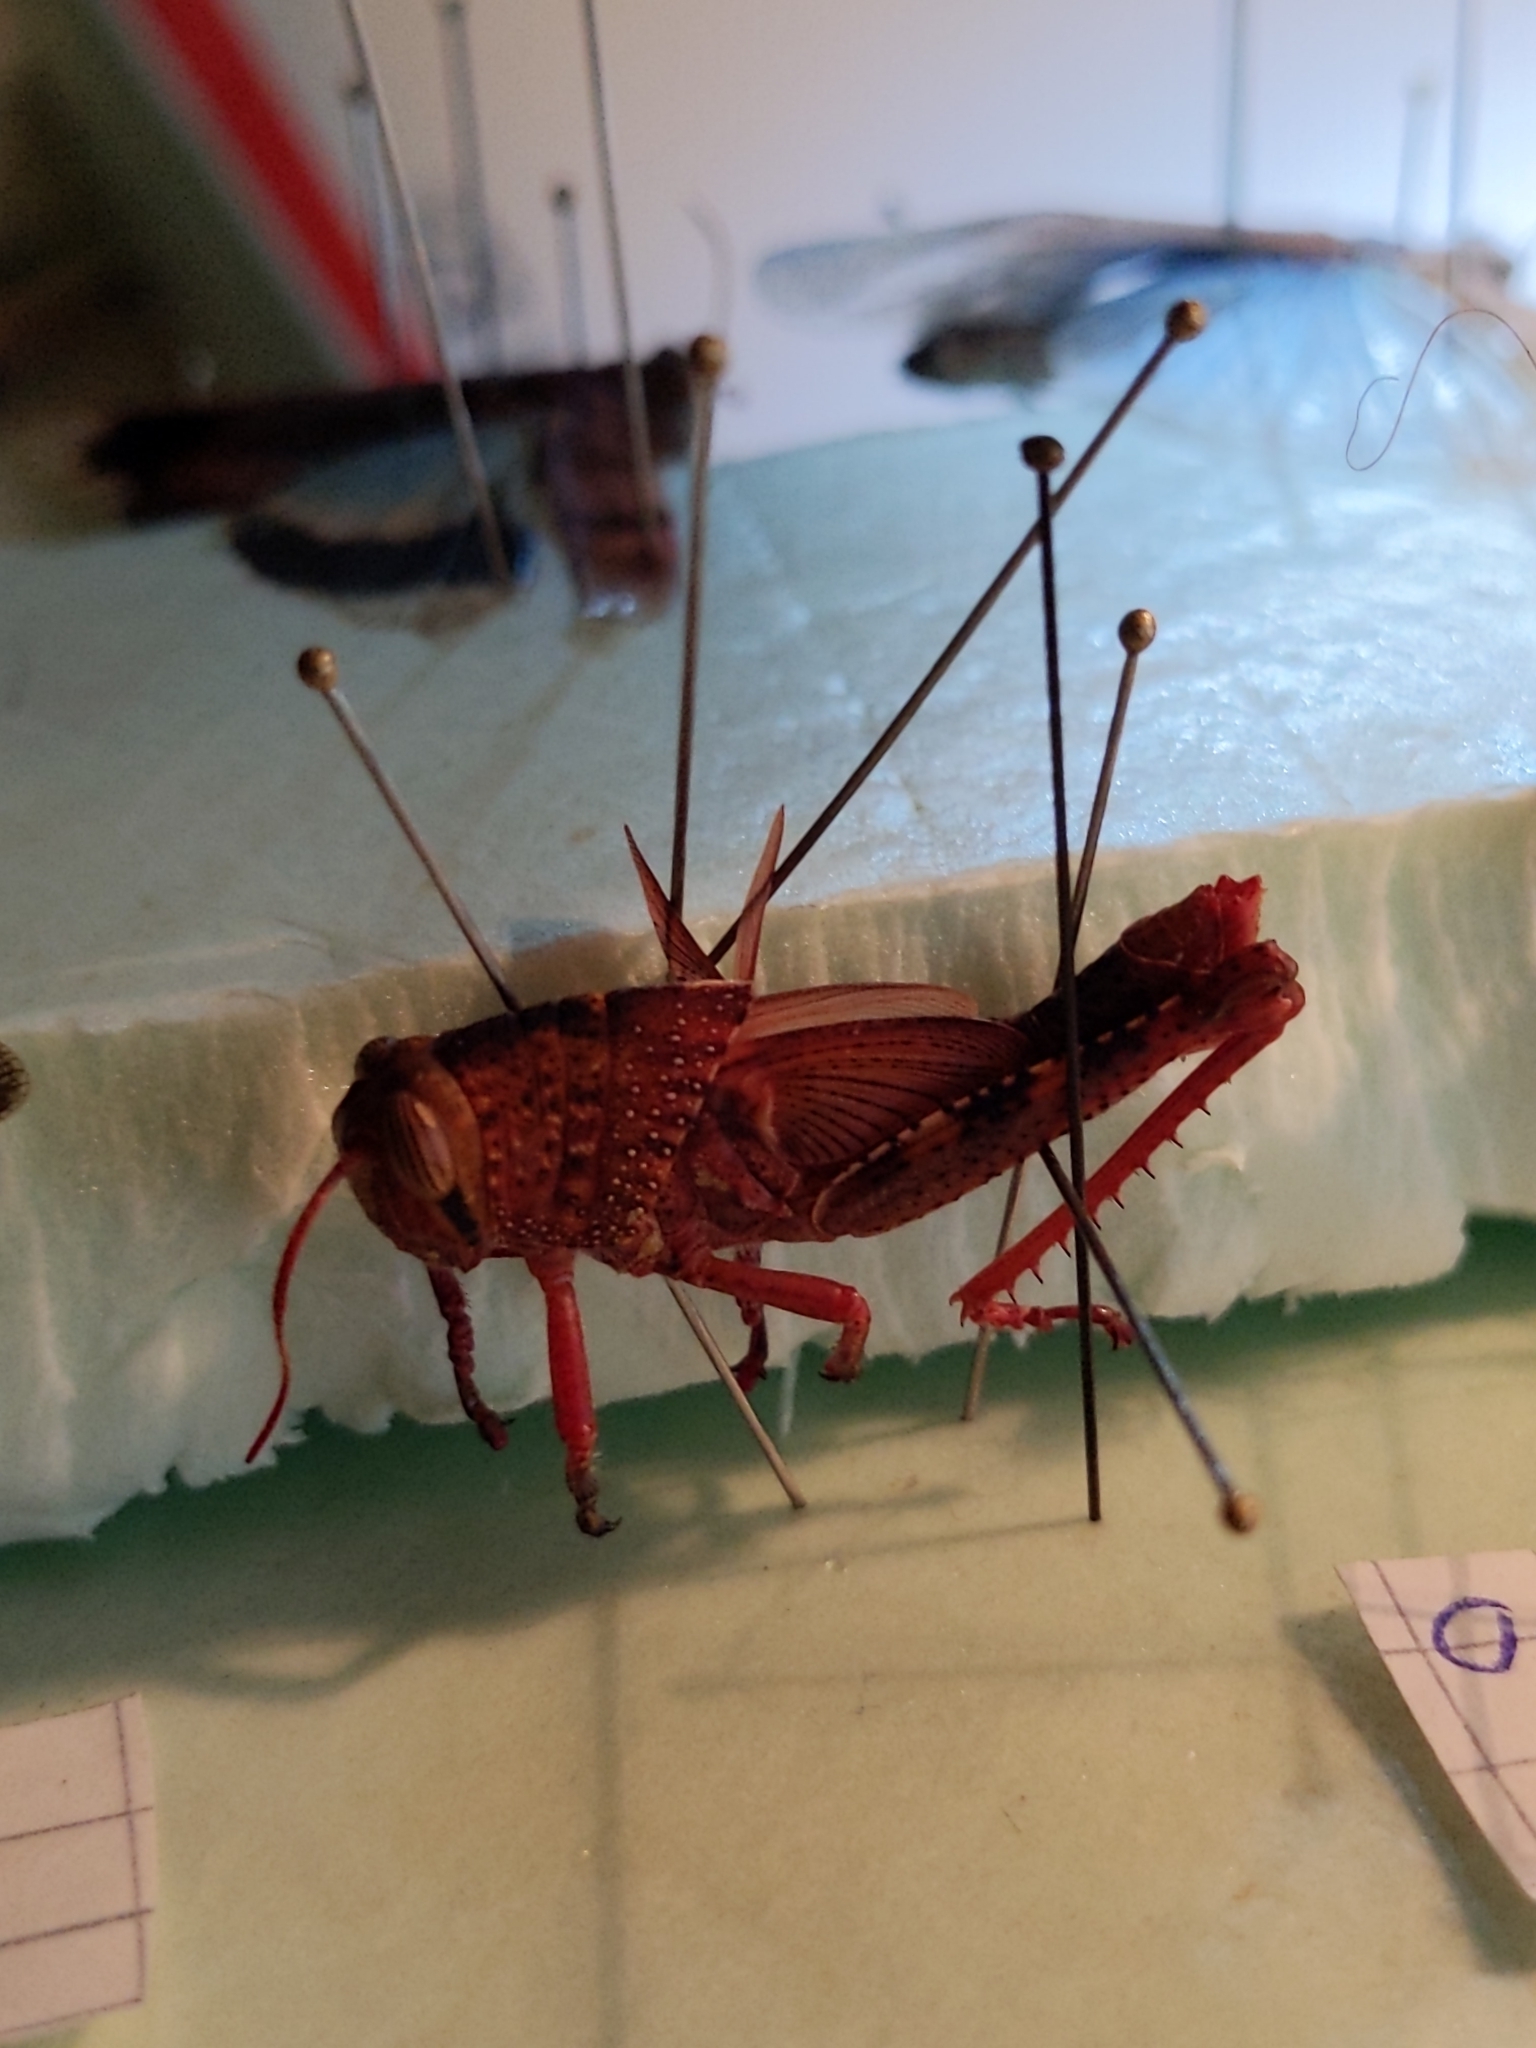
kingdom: Animalia
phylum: Arthropoda
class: Insecta
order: Orthoptera
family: Acrididae
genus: Anacridium
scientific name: Anacridium aegyptium
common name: Egyptian grasshopper
